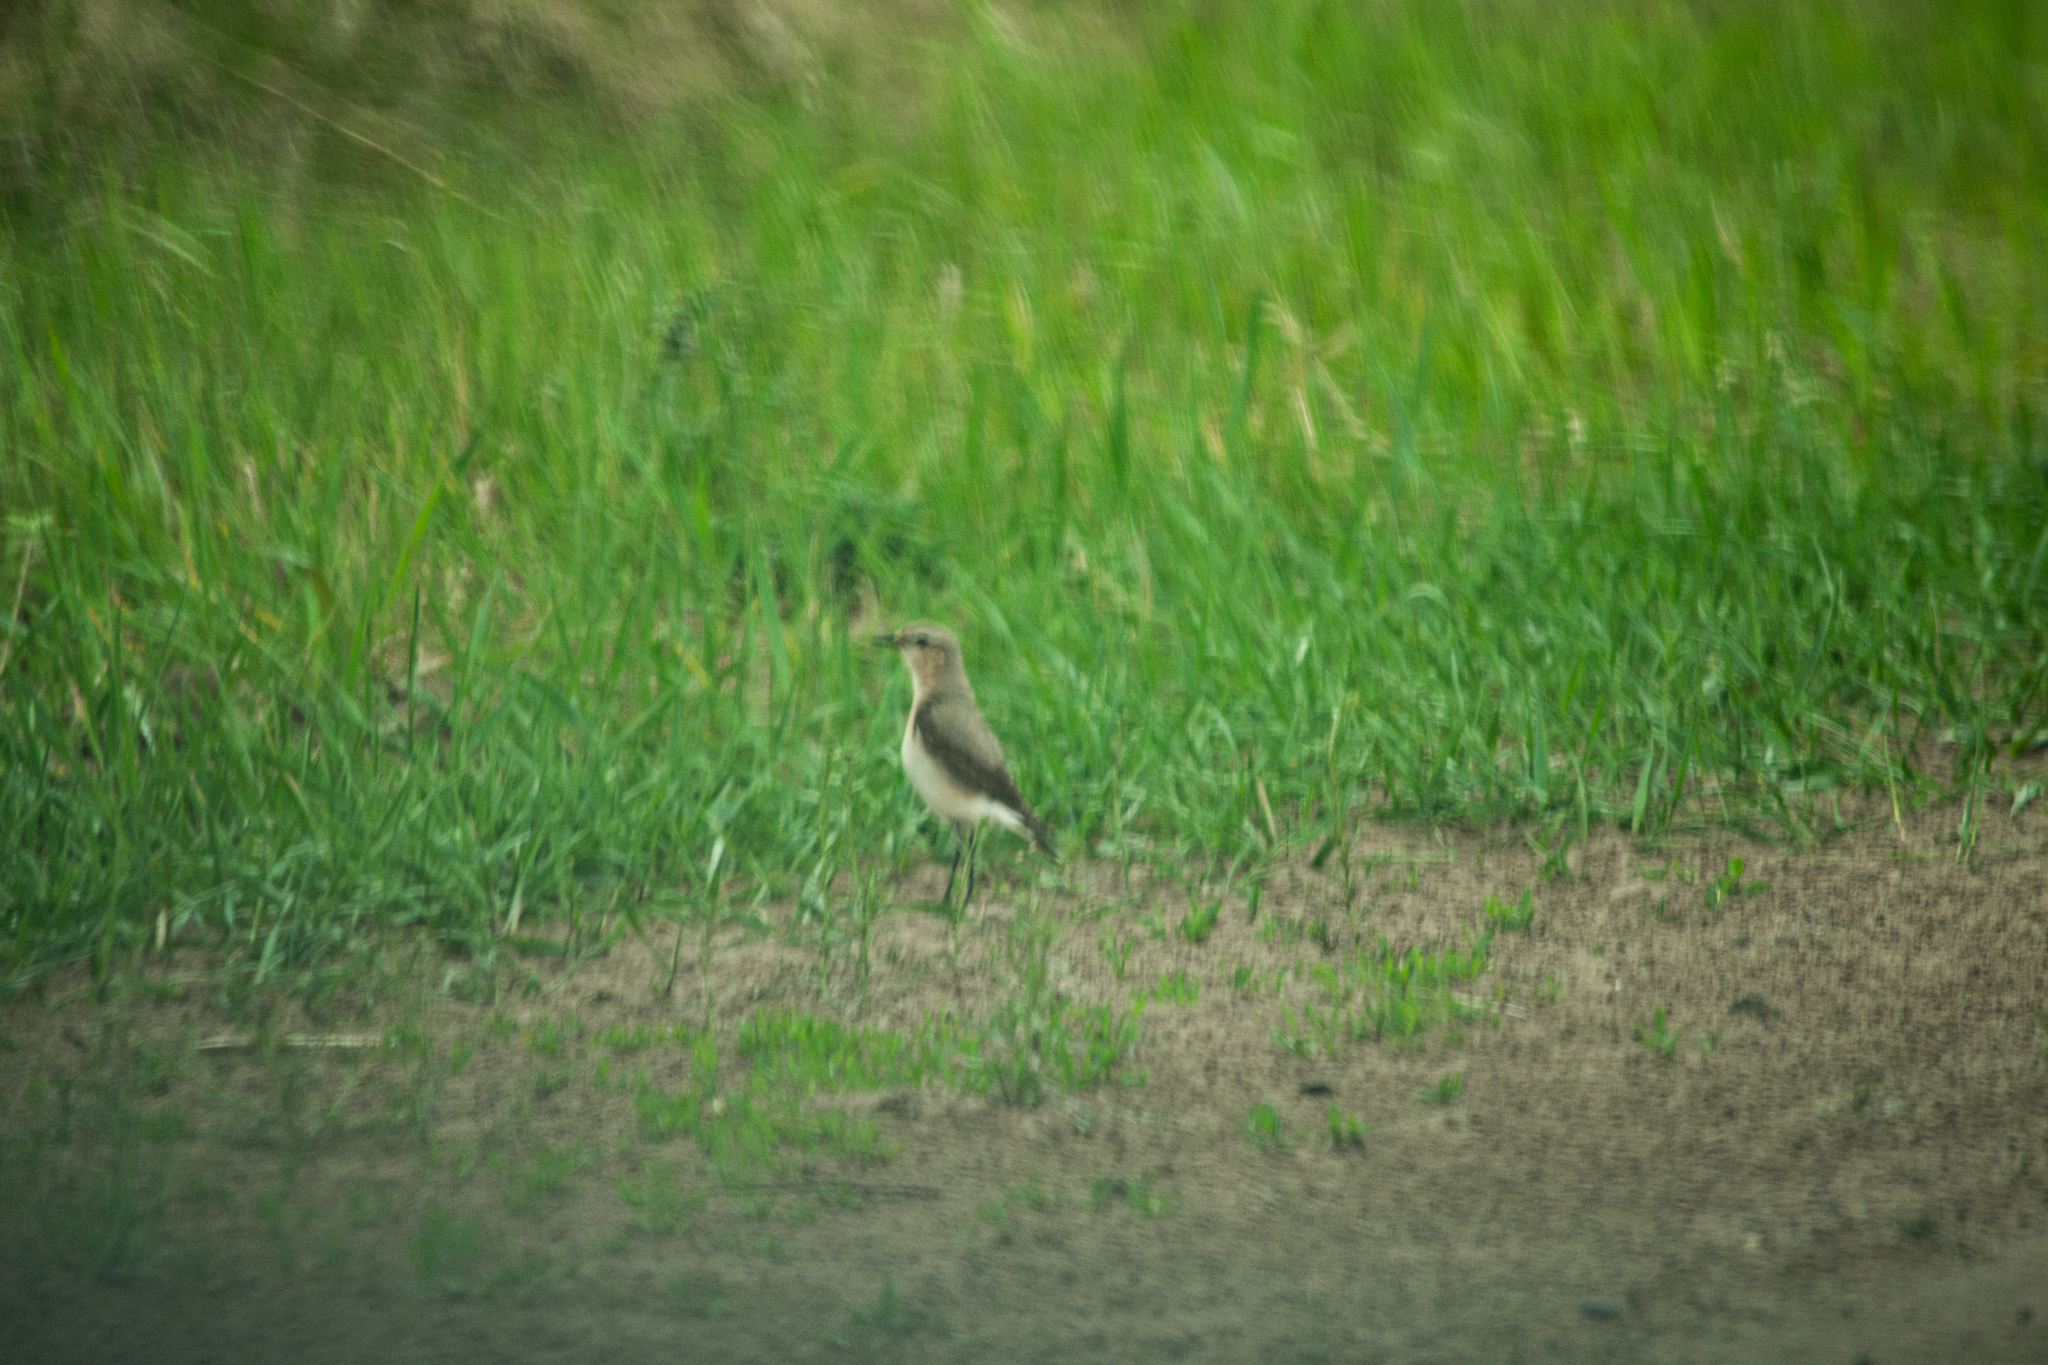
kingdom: Animalia
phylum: Chordata
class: Aves
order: Passeriformes
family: Muscicapidae
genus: Oenanthe
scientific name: Oenanthe oenanthe
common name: Northern wheatear
